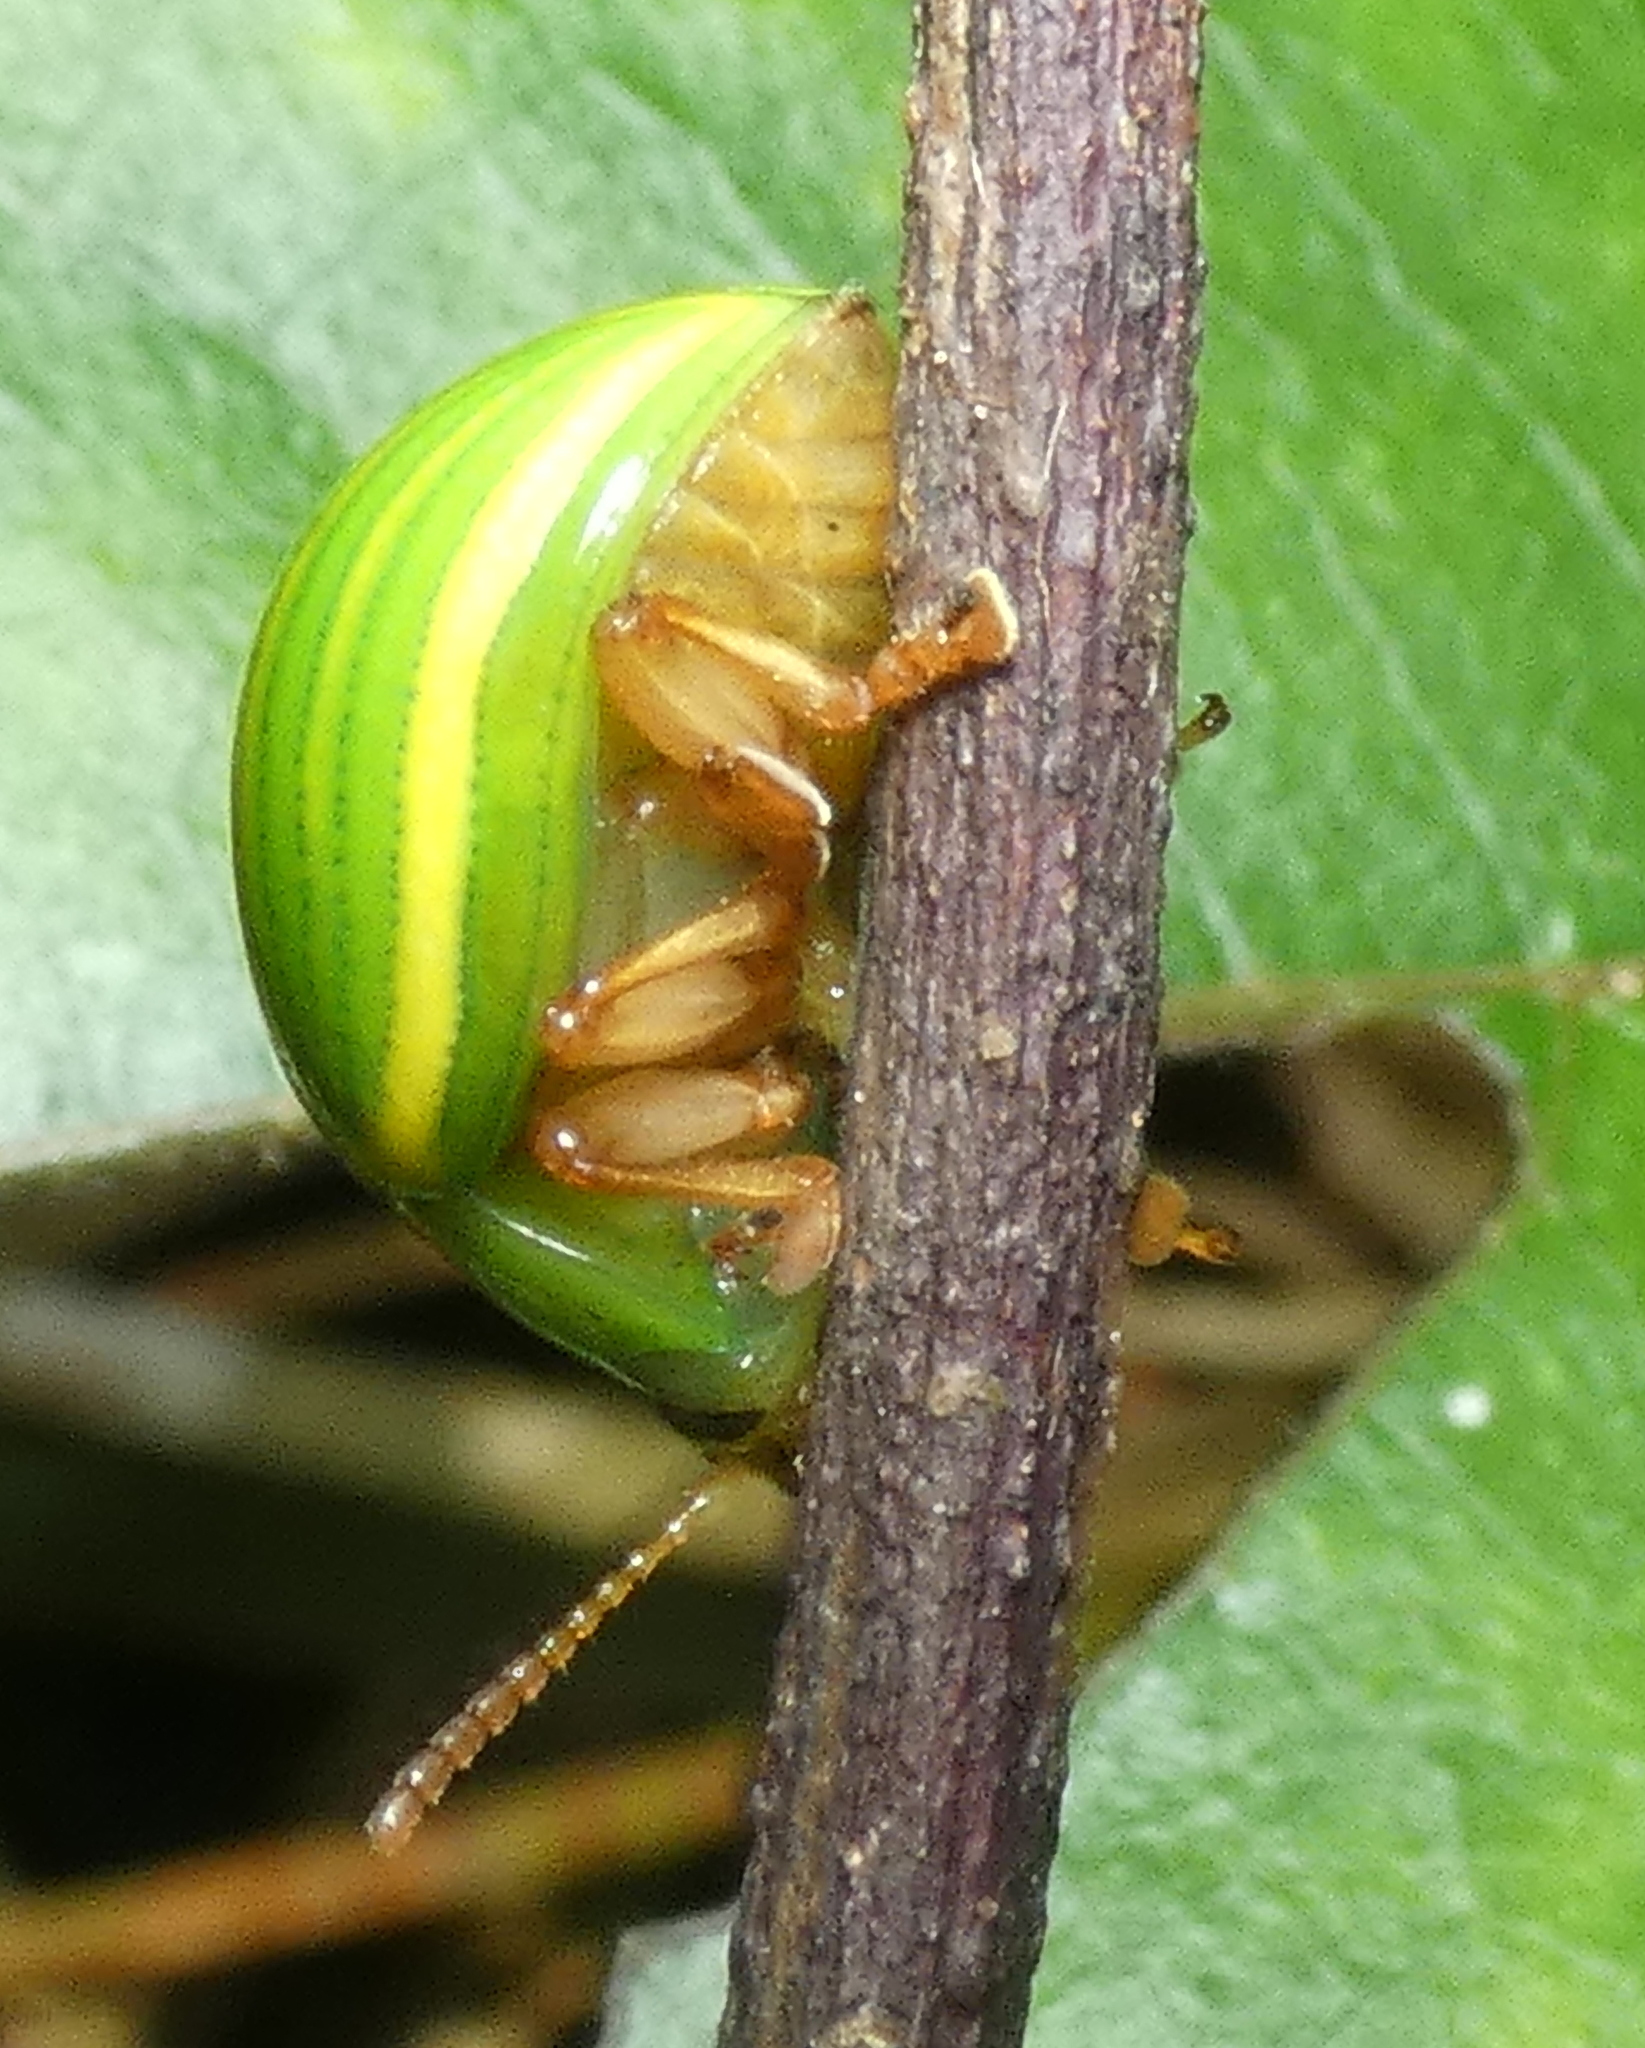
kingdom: Animalia
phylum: Arthropoda
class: Insecta
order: Coleoptera
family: Chrysomelidae
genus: Platyphora
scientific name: Platyphora
